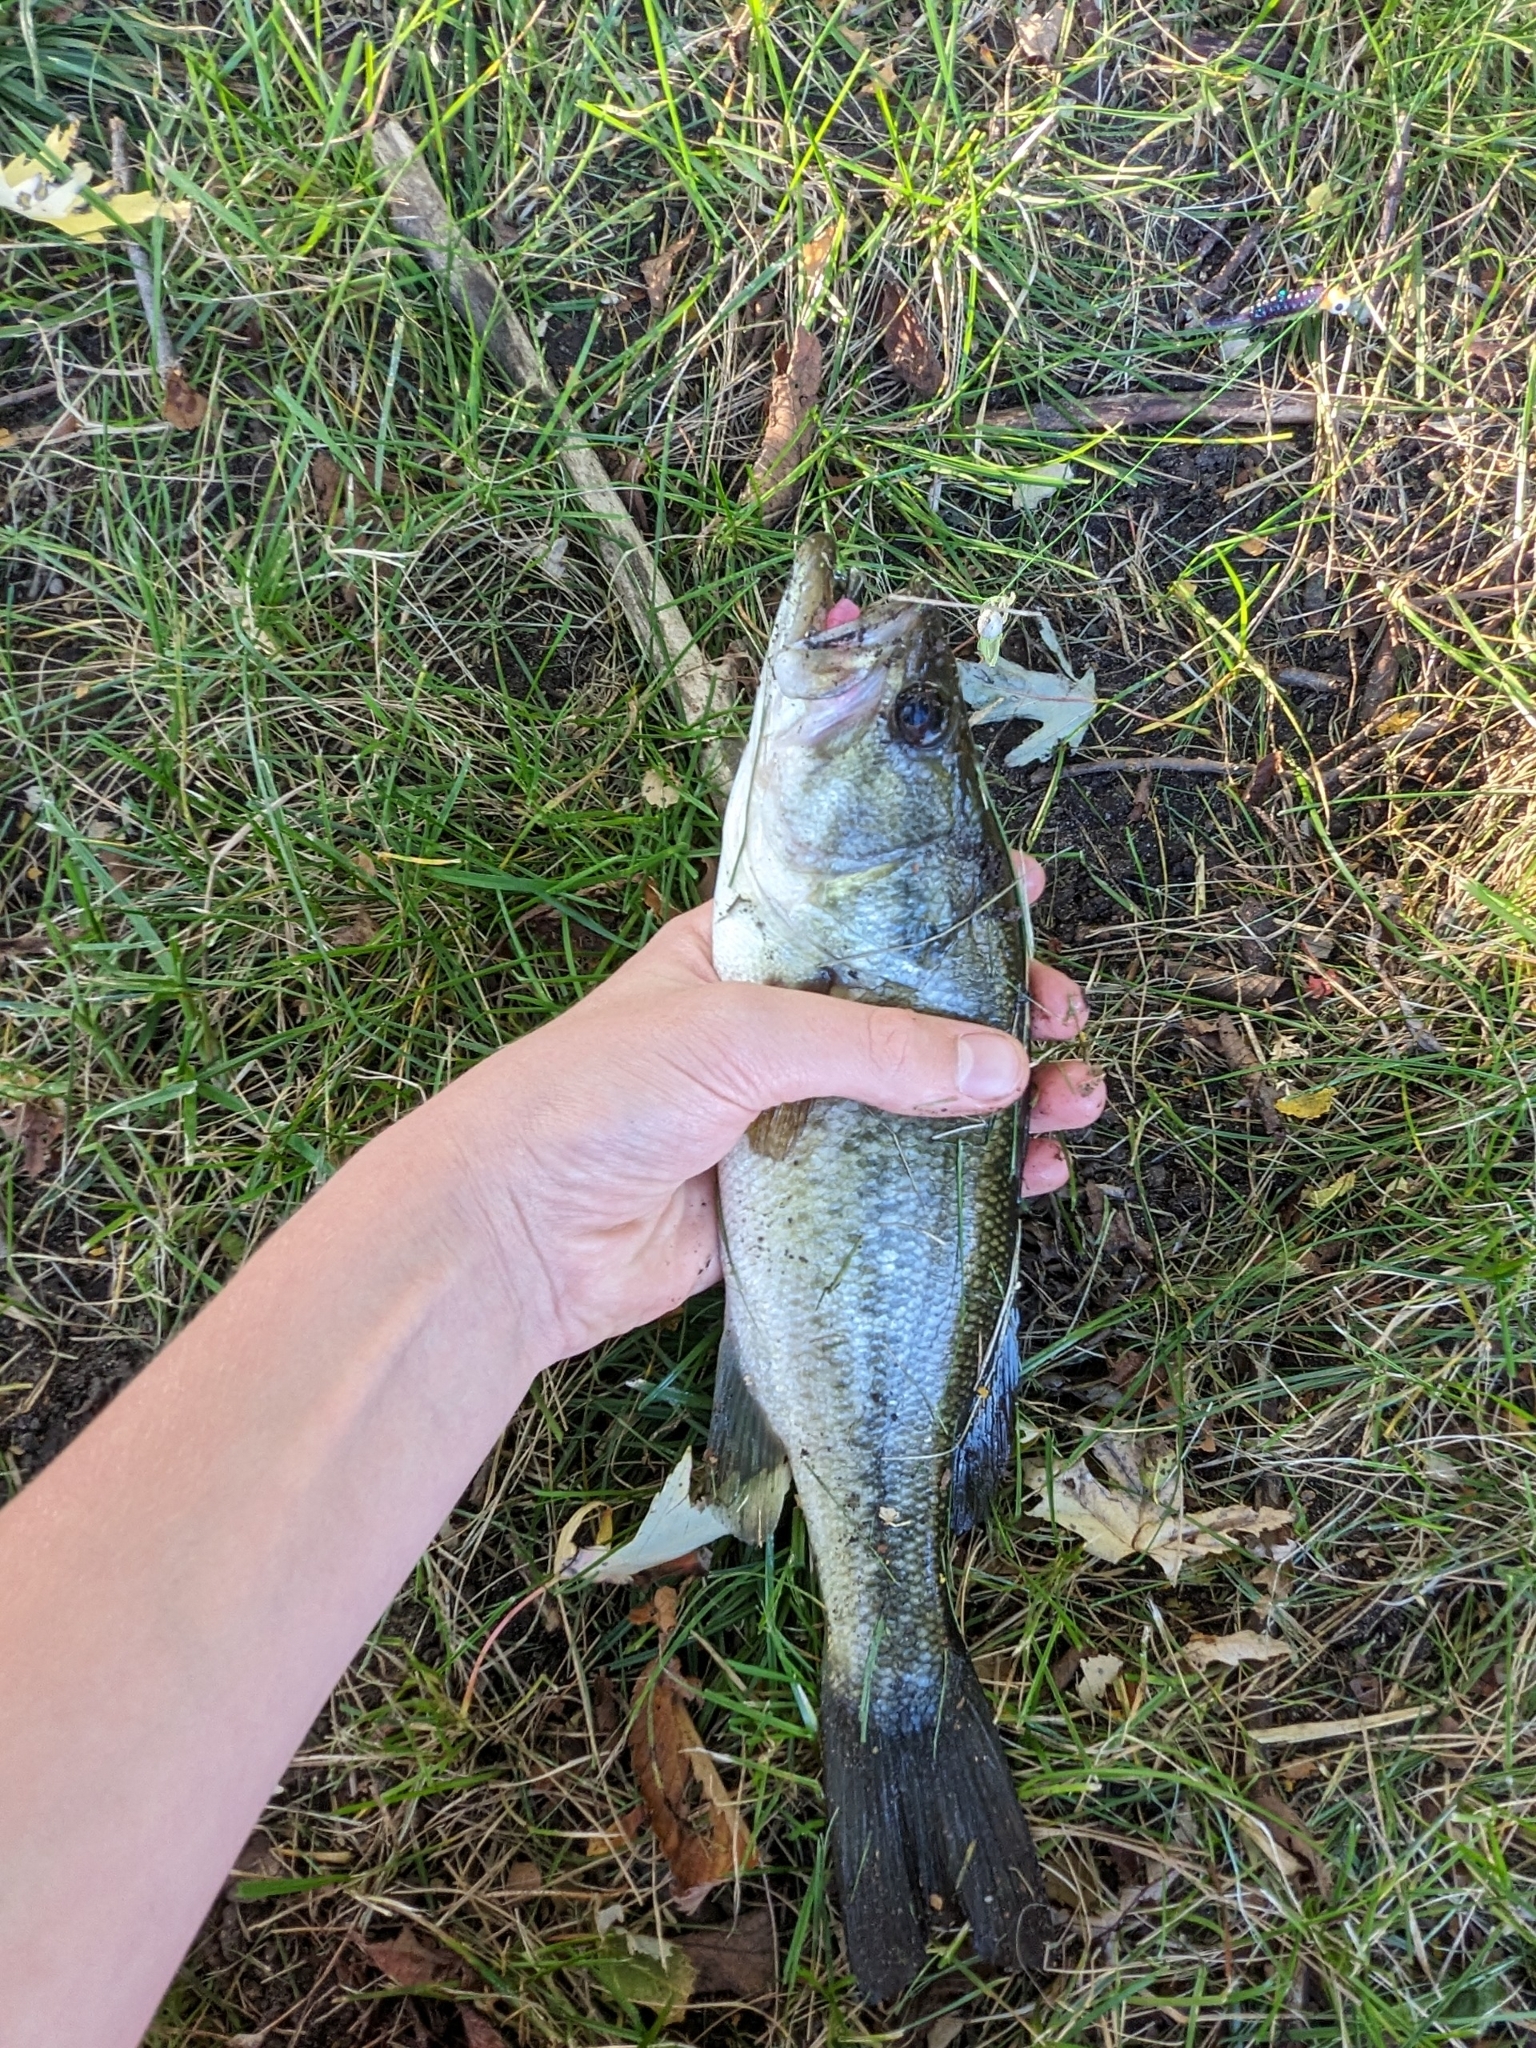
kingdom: Animalia
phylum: Chordata
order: Perciformes
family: Centrarchidae
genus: Micropterus
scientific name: Micropterus
